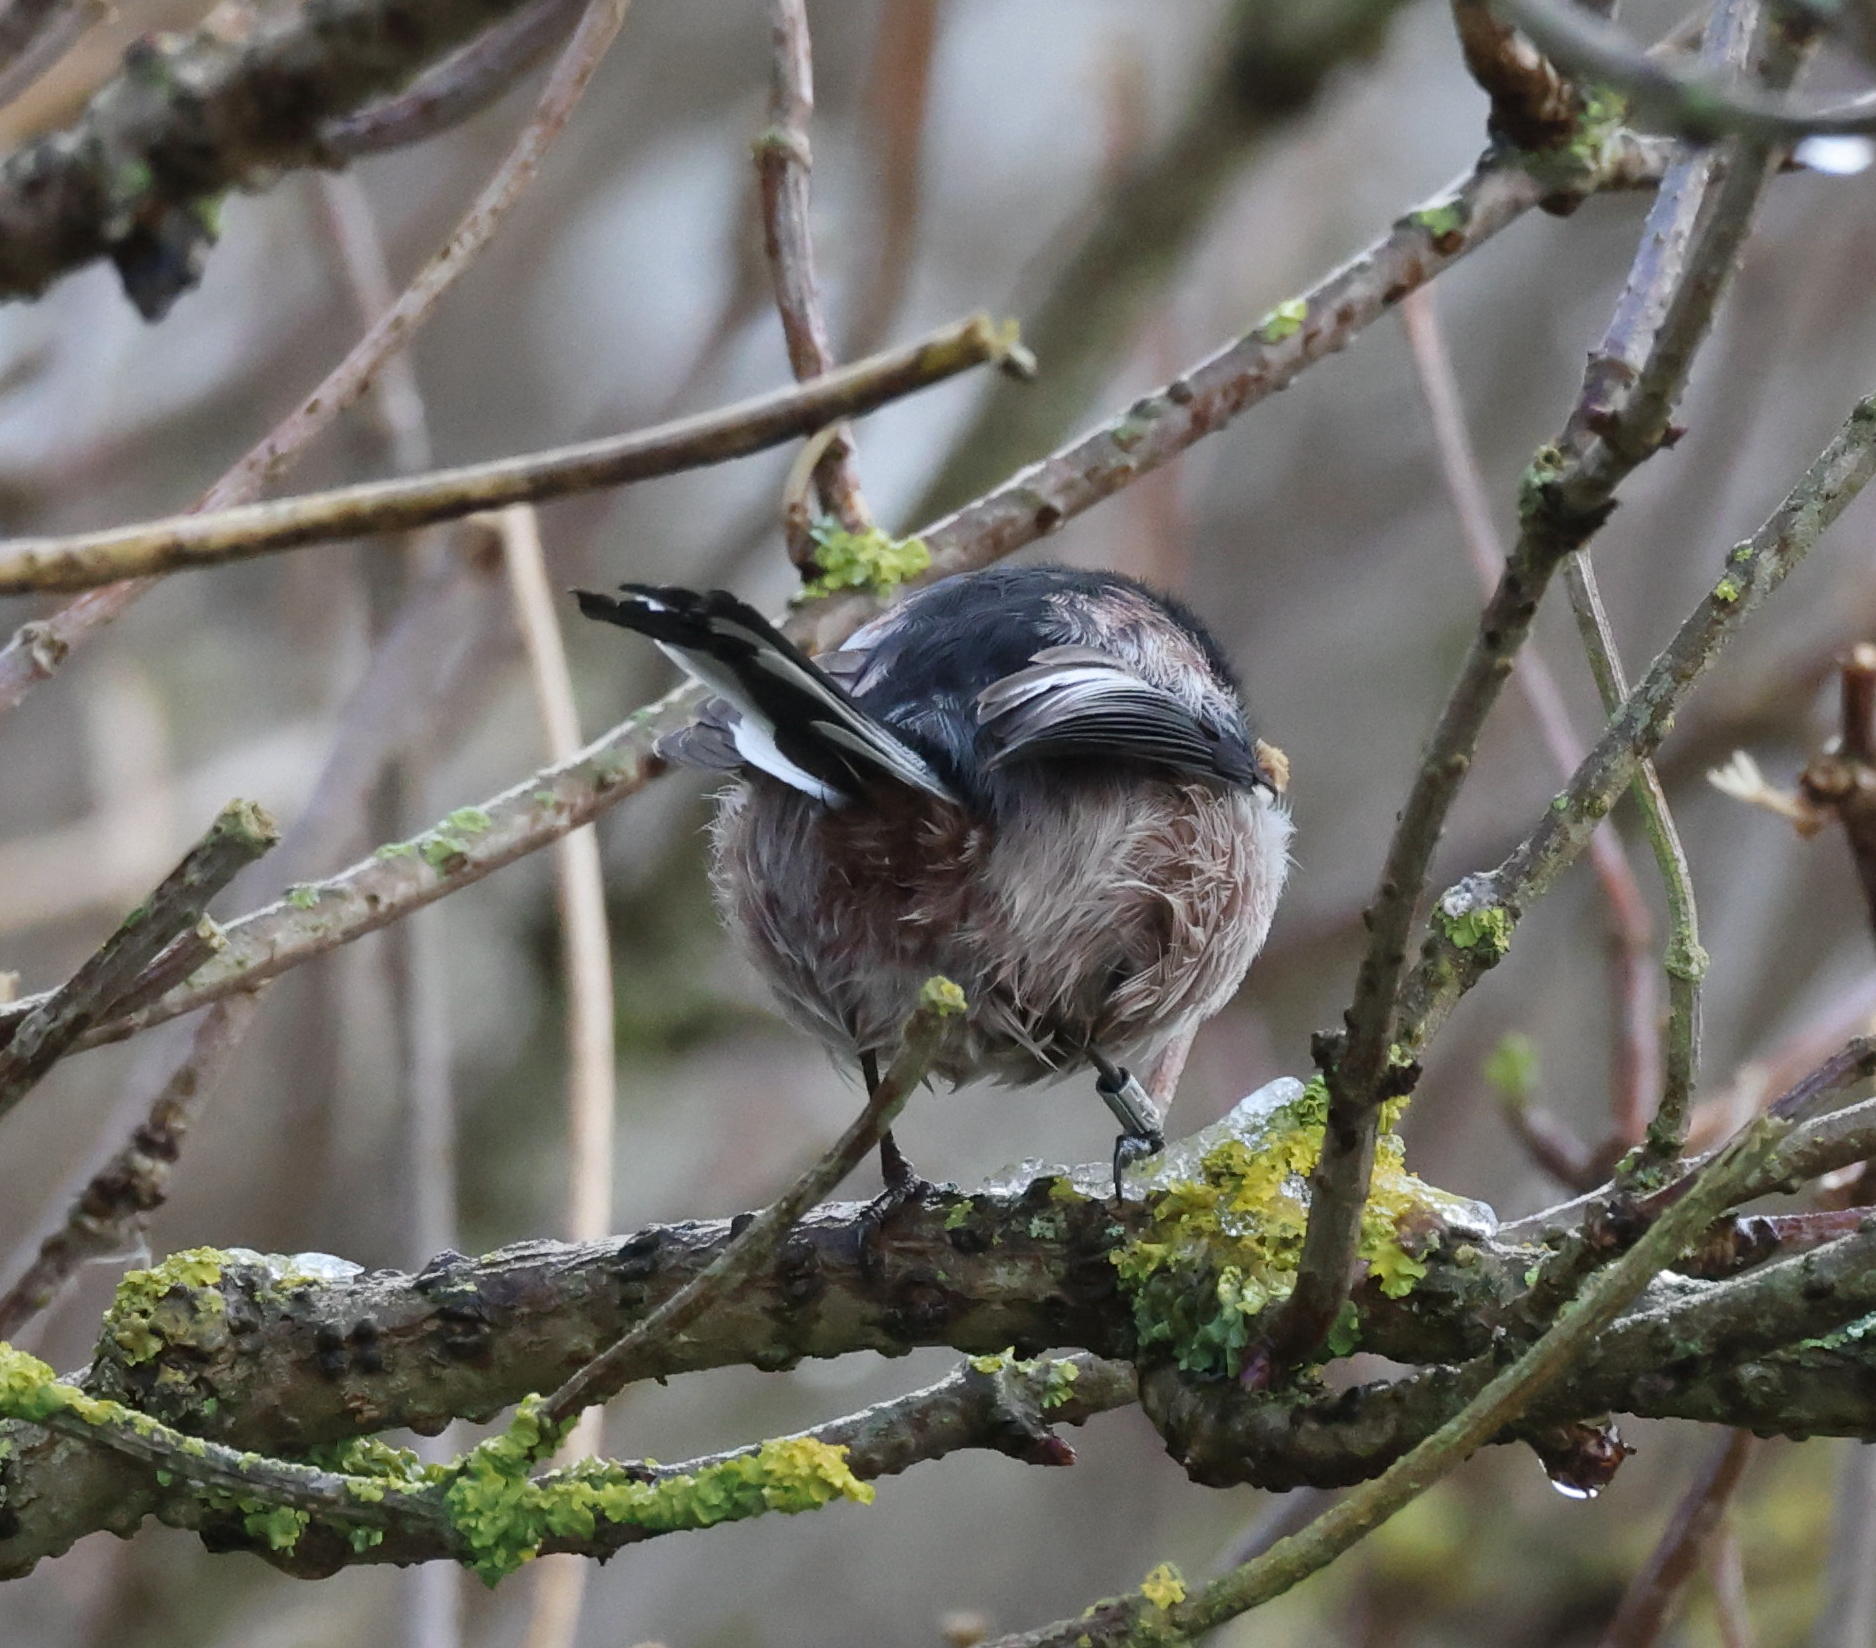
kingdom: Animalia
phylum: Chordata
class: Aves
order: Passeriformes
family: Aegithalidae
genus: Aegithalos
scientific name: Aegithalos caudatus
